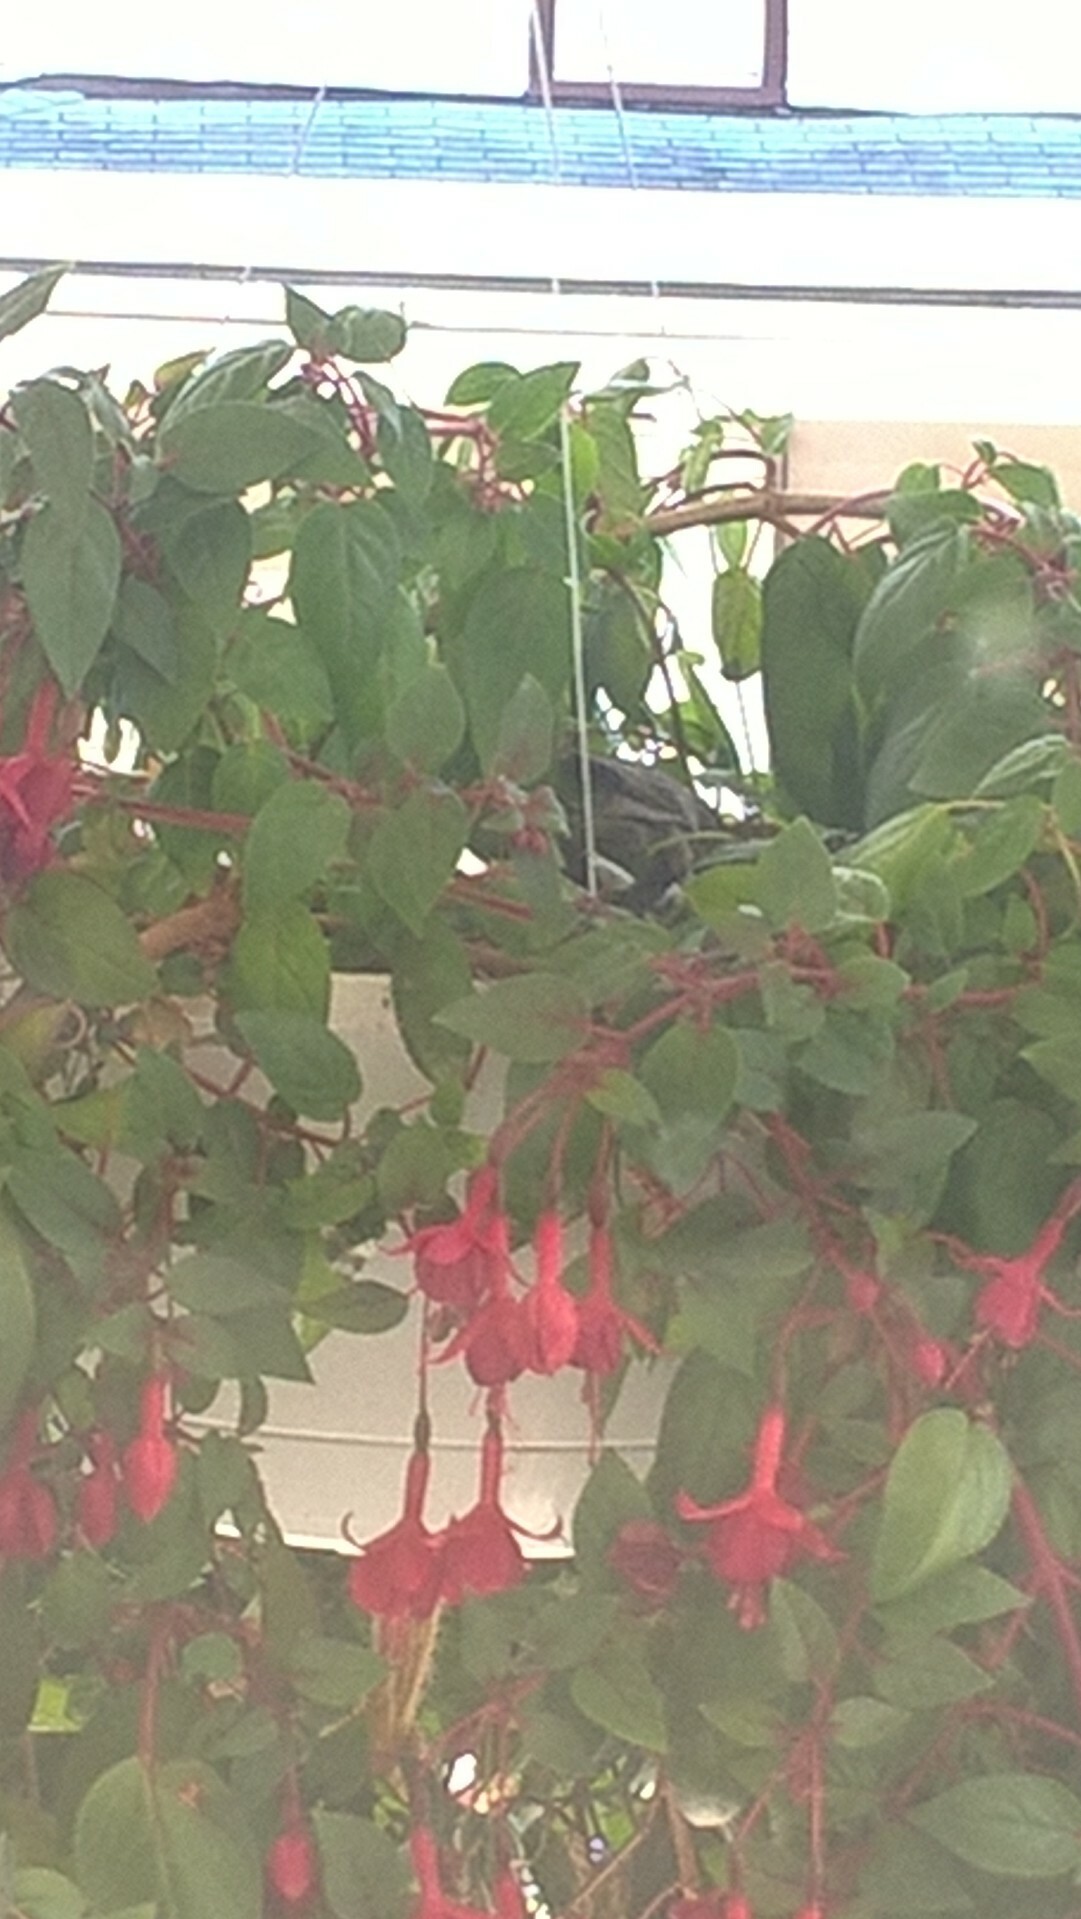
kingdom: Animalia
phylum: Chordata
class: Aves
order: Passeriformes
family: Fringillidae
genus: Haemorhous
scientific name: Haemorhous mexicanus
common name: House finch
